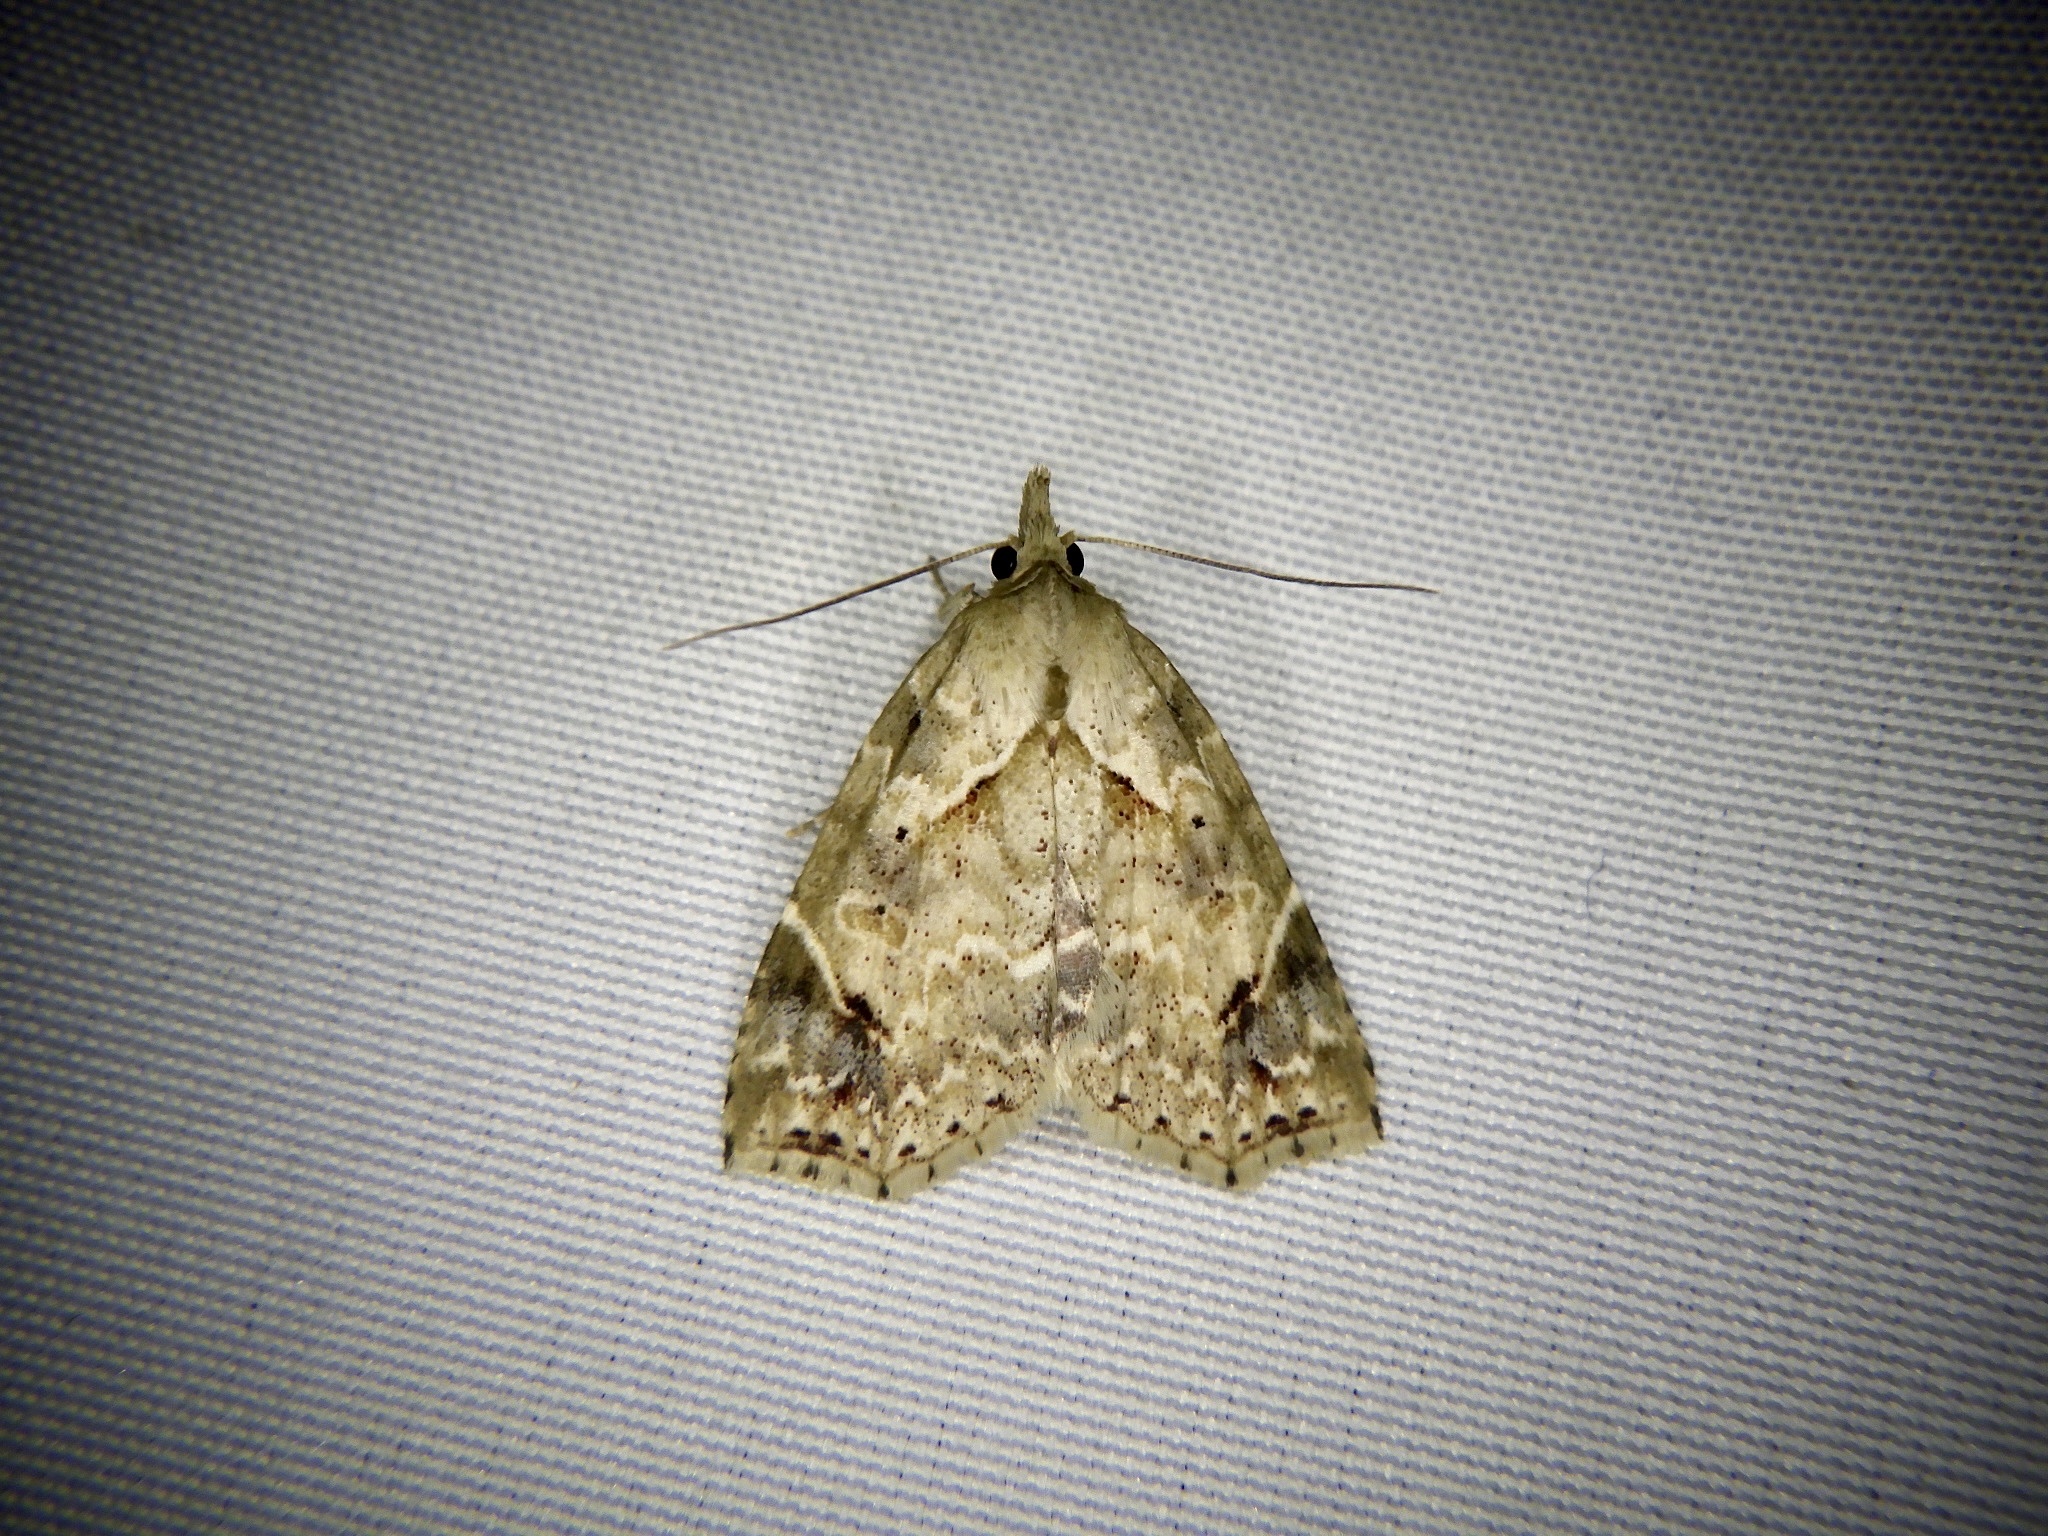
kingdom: Animalia
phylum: Arthropoda
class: Insecta
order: Lepidoptera
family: Erebidae
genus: Olulis
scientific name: Olulis
